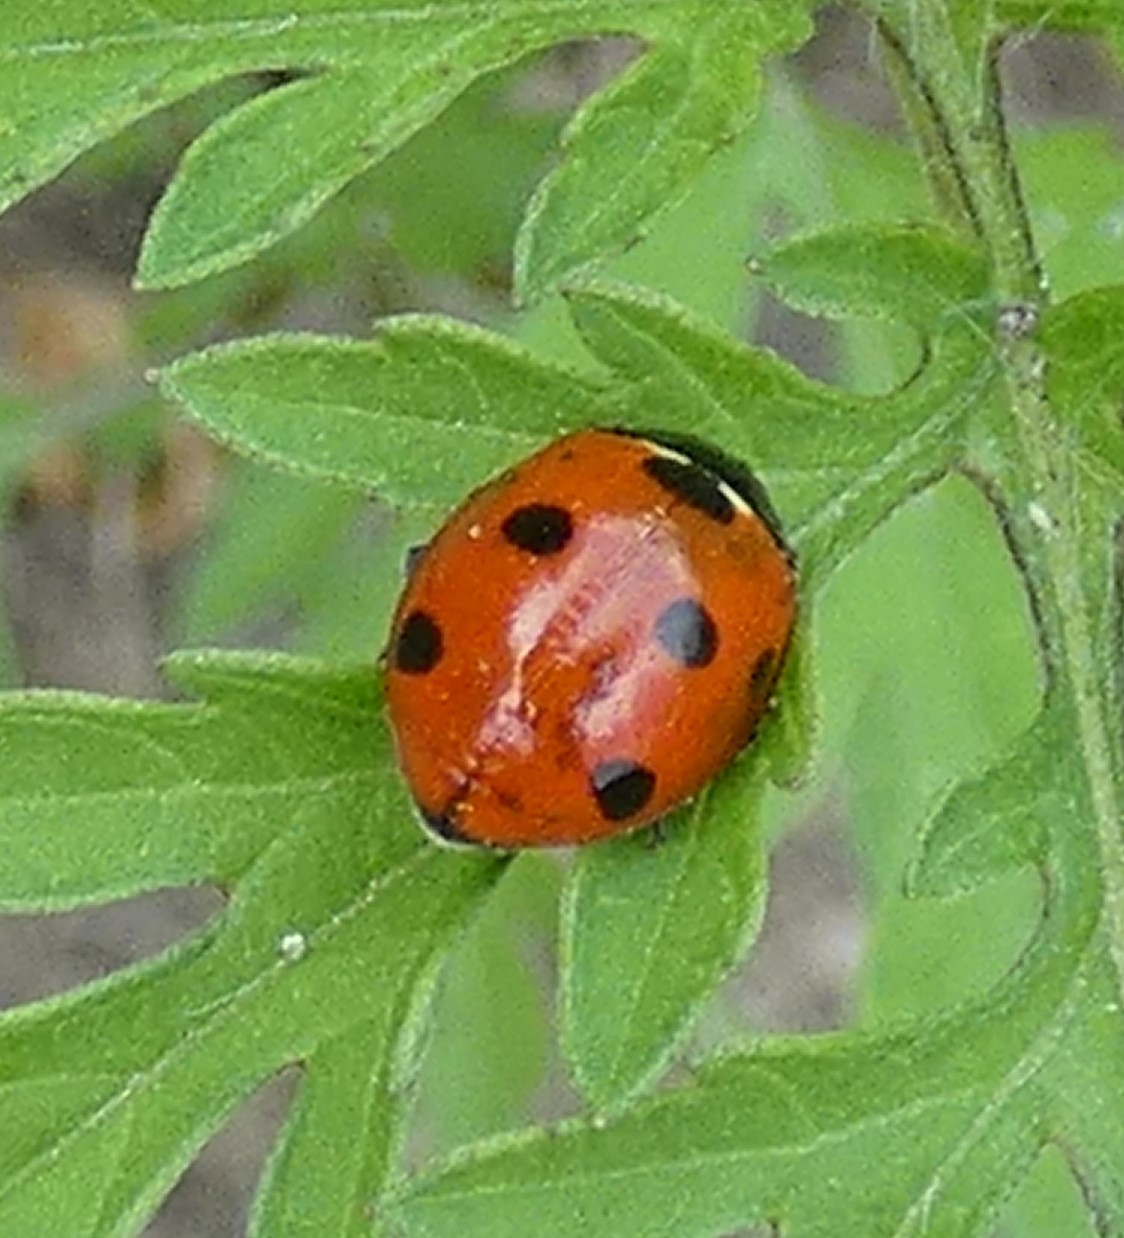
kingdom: Animalia
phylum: Arthropoda
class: Insecta
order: Coleoptera
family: Coccinellidae
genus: Coccinella
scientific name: Coccinella septempunctata
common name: Sevenspotted lady beetle
